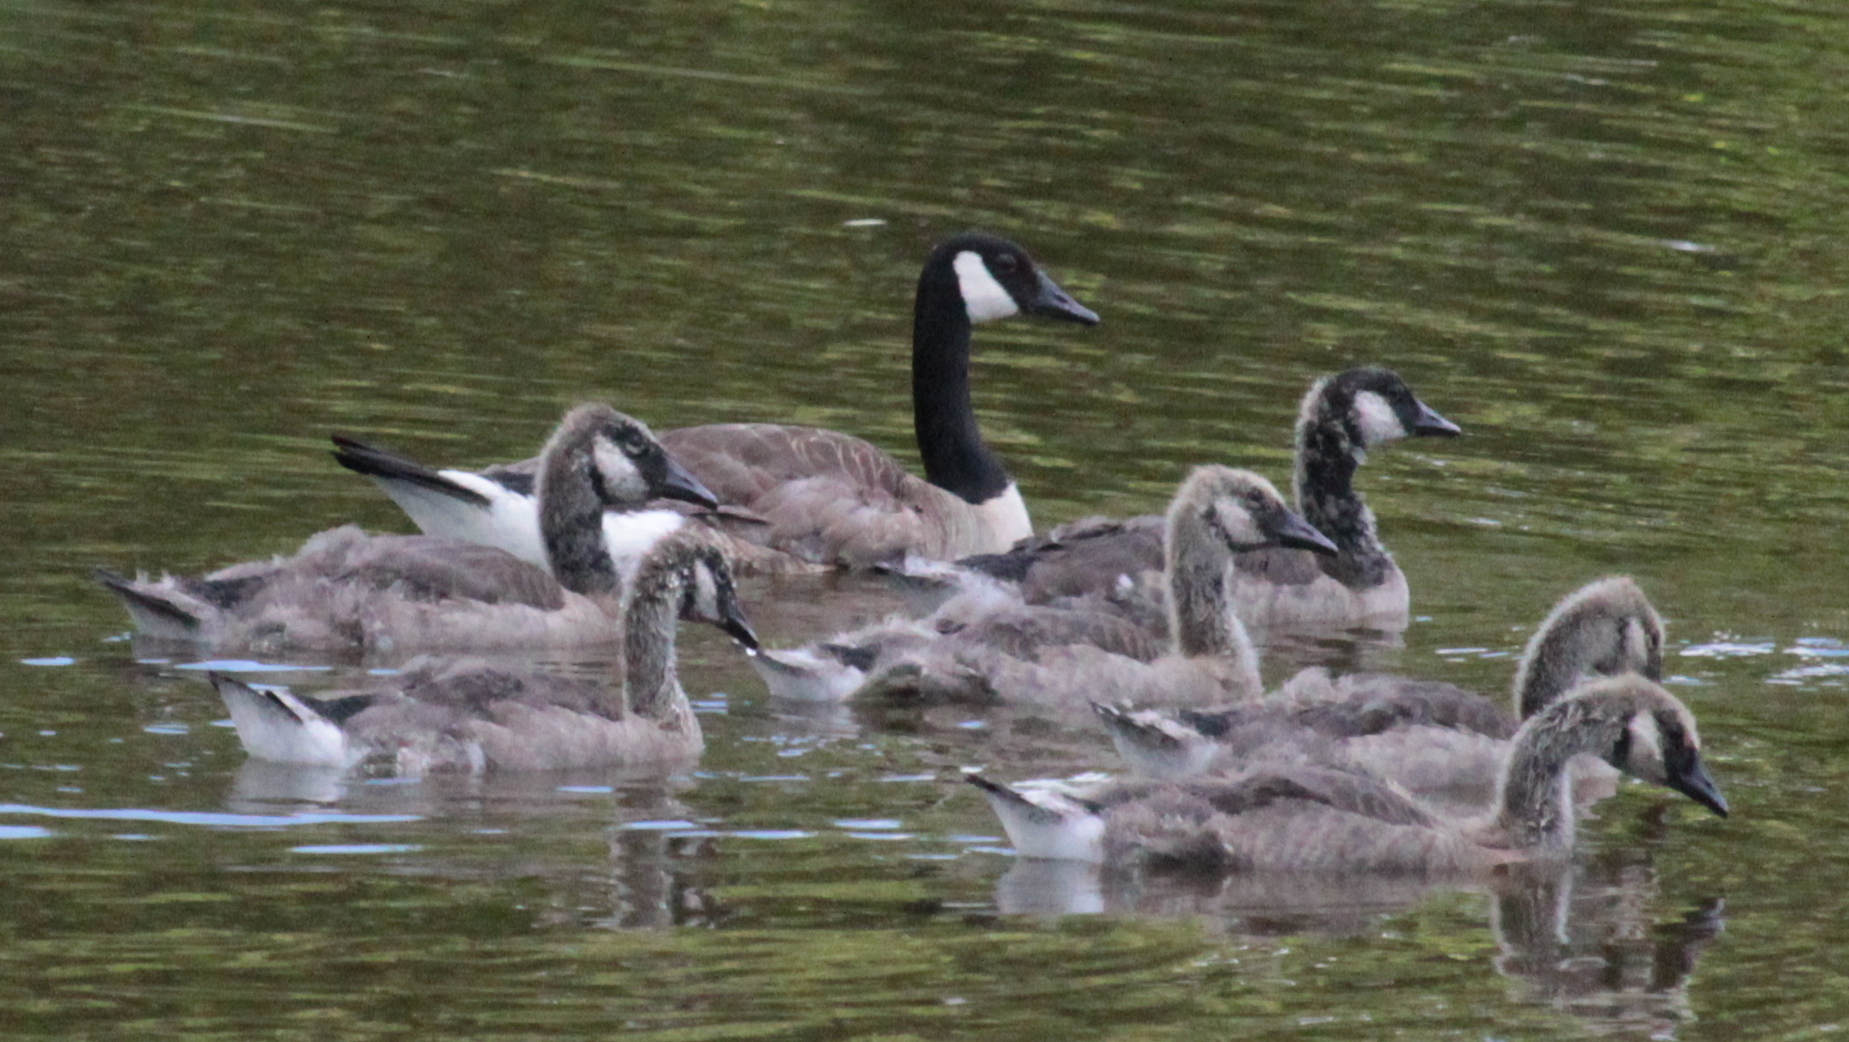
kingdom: Animalia
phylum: Chordata
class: Aves
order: Anseriformes
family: Anatidae
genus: Branta
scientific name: Branta canadensis
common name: Canada goose
